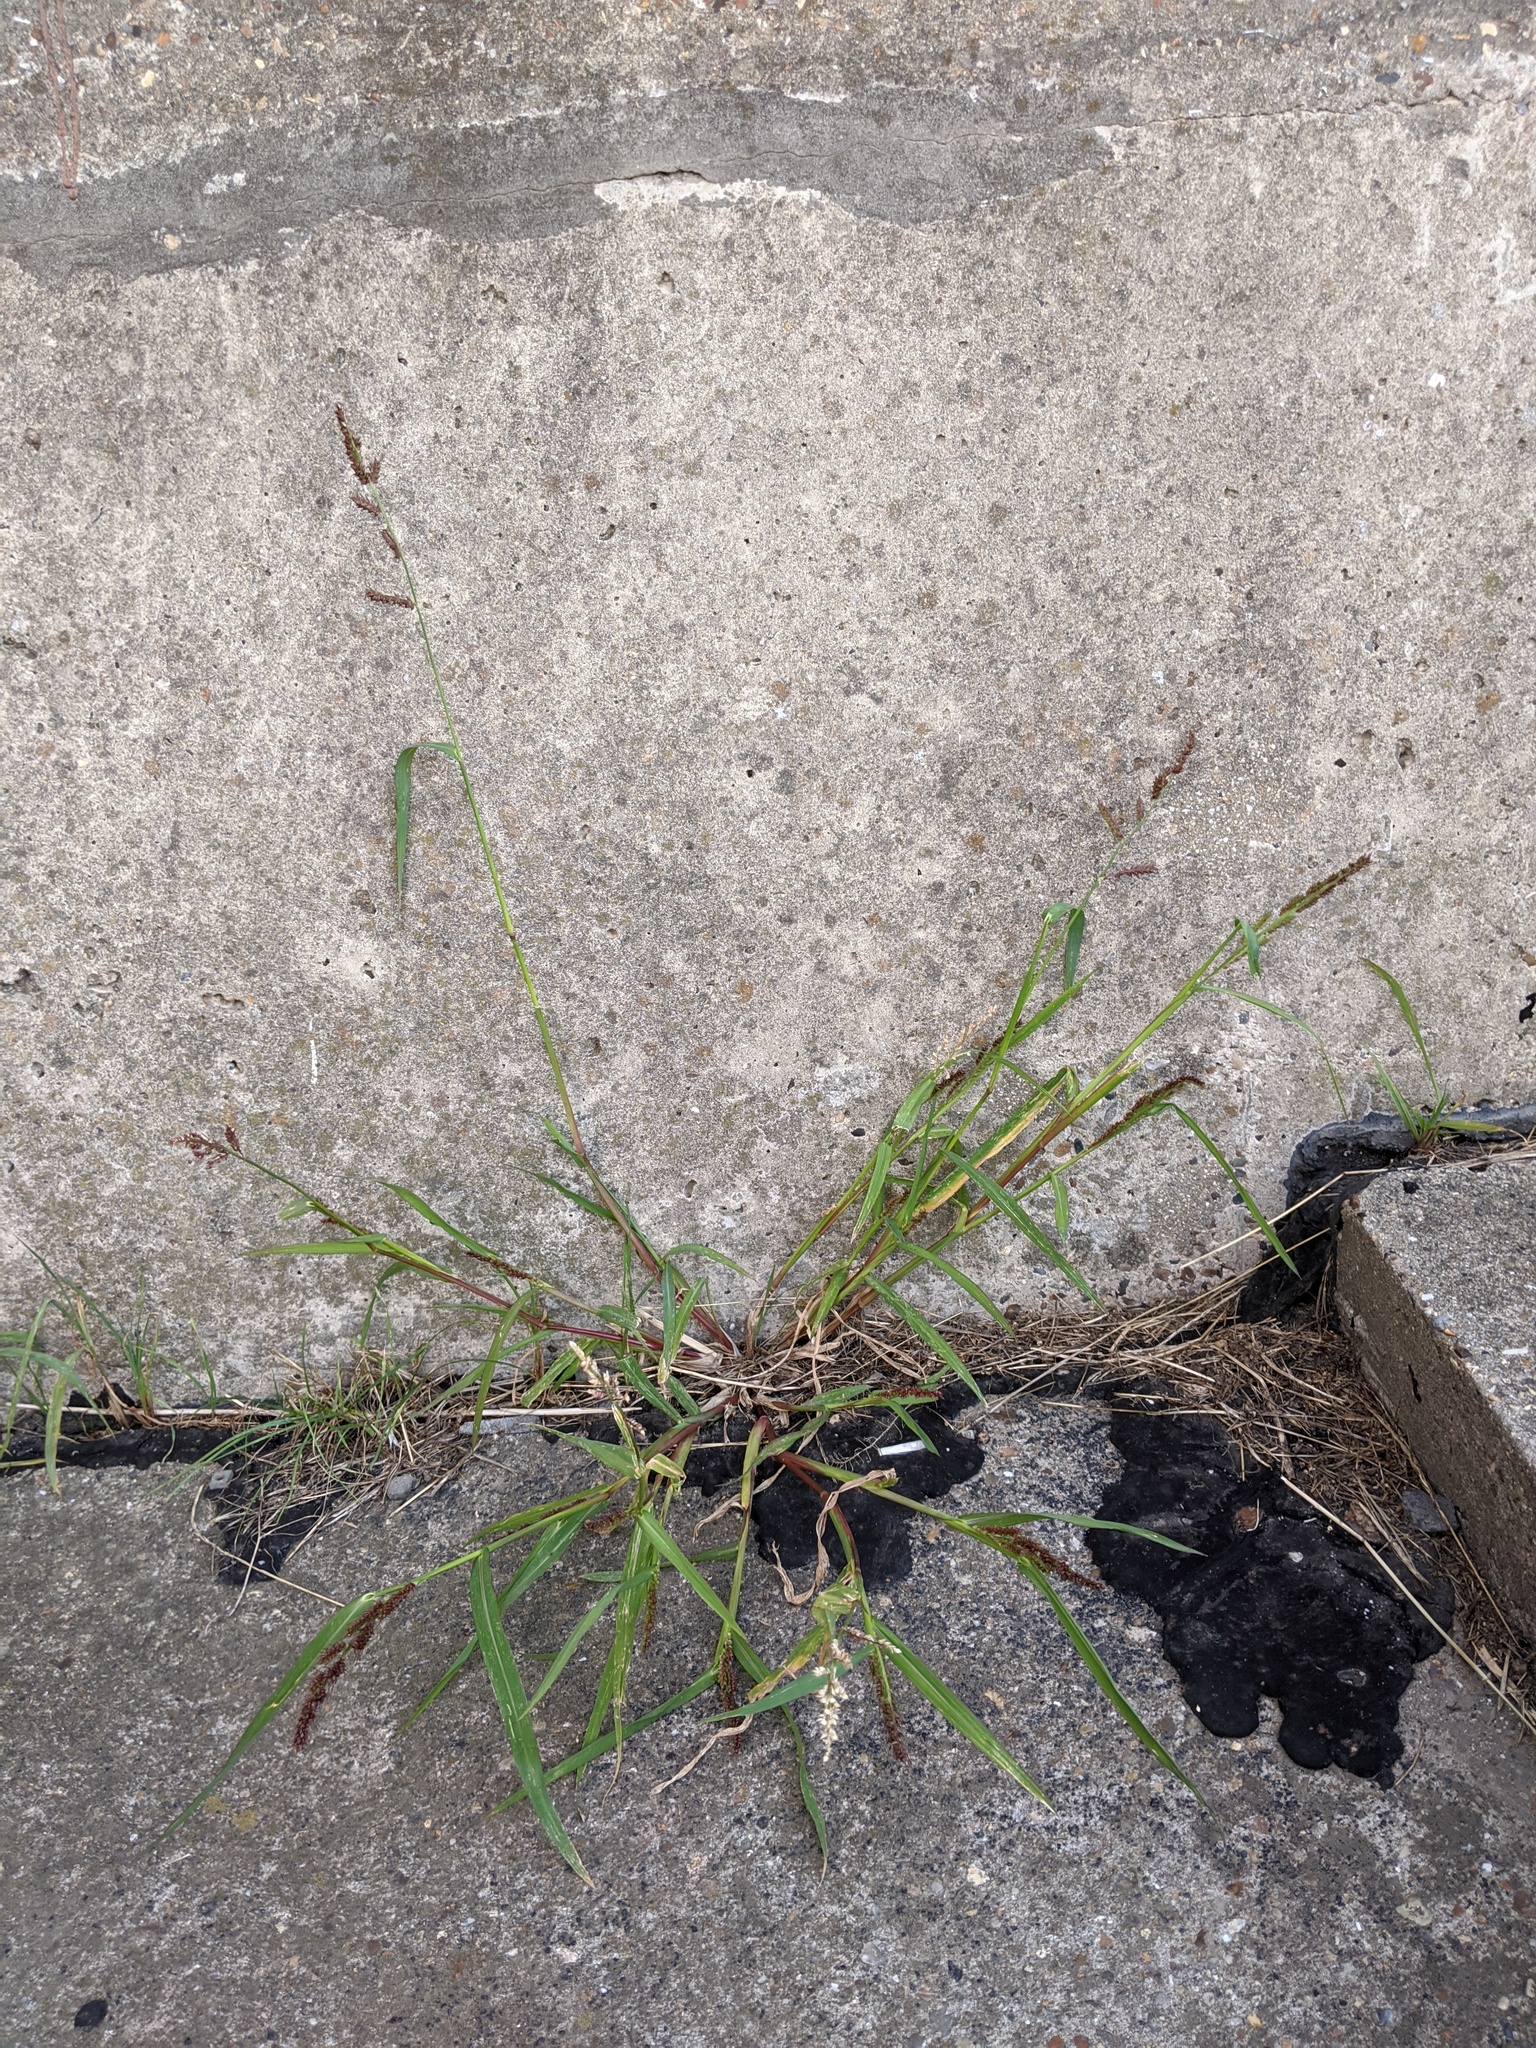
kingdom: Plantae
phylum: Tracheophyta
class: Liliopsida
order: Poales
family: Poaceae
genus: Echinochloa
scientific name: Echinochloa crus-galli
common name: Cockspur
